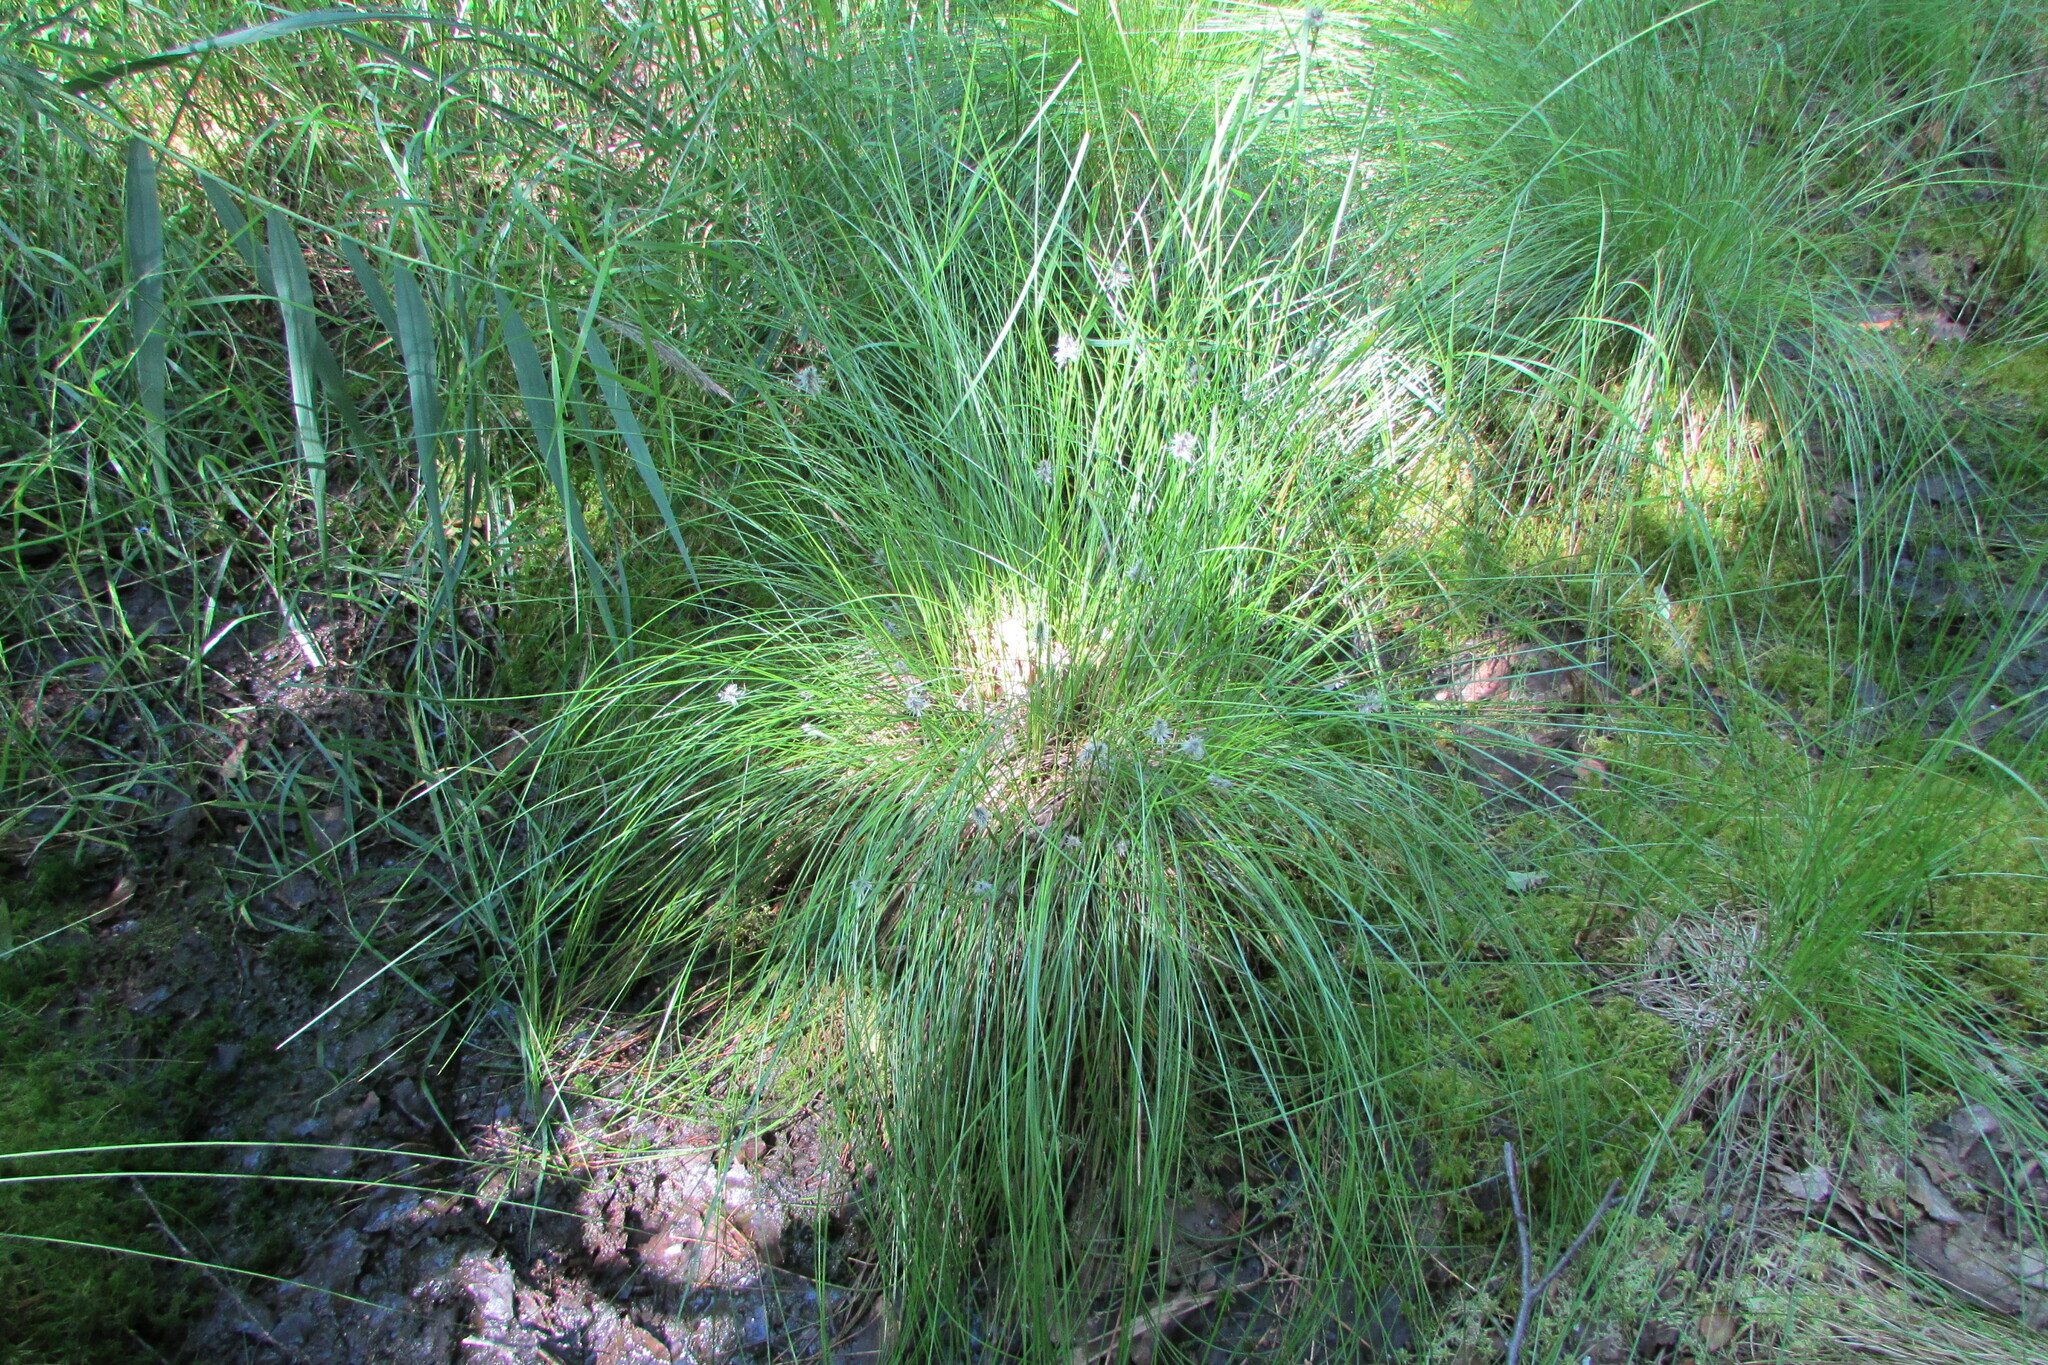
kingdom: Plantae
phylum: Tracheophyta
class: Liliopsida
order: Poales
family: Cyperaceae
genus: Eriophorum
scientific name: Eriophorum vaginatum
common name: Hare's-tail cottongrass
